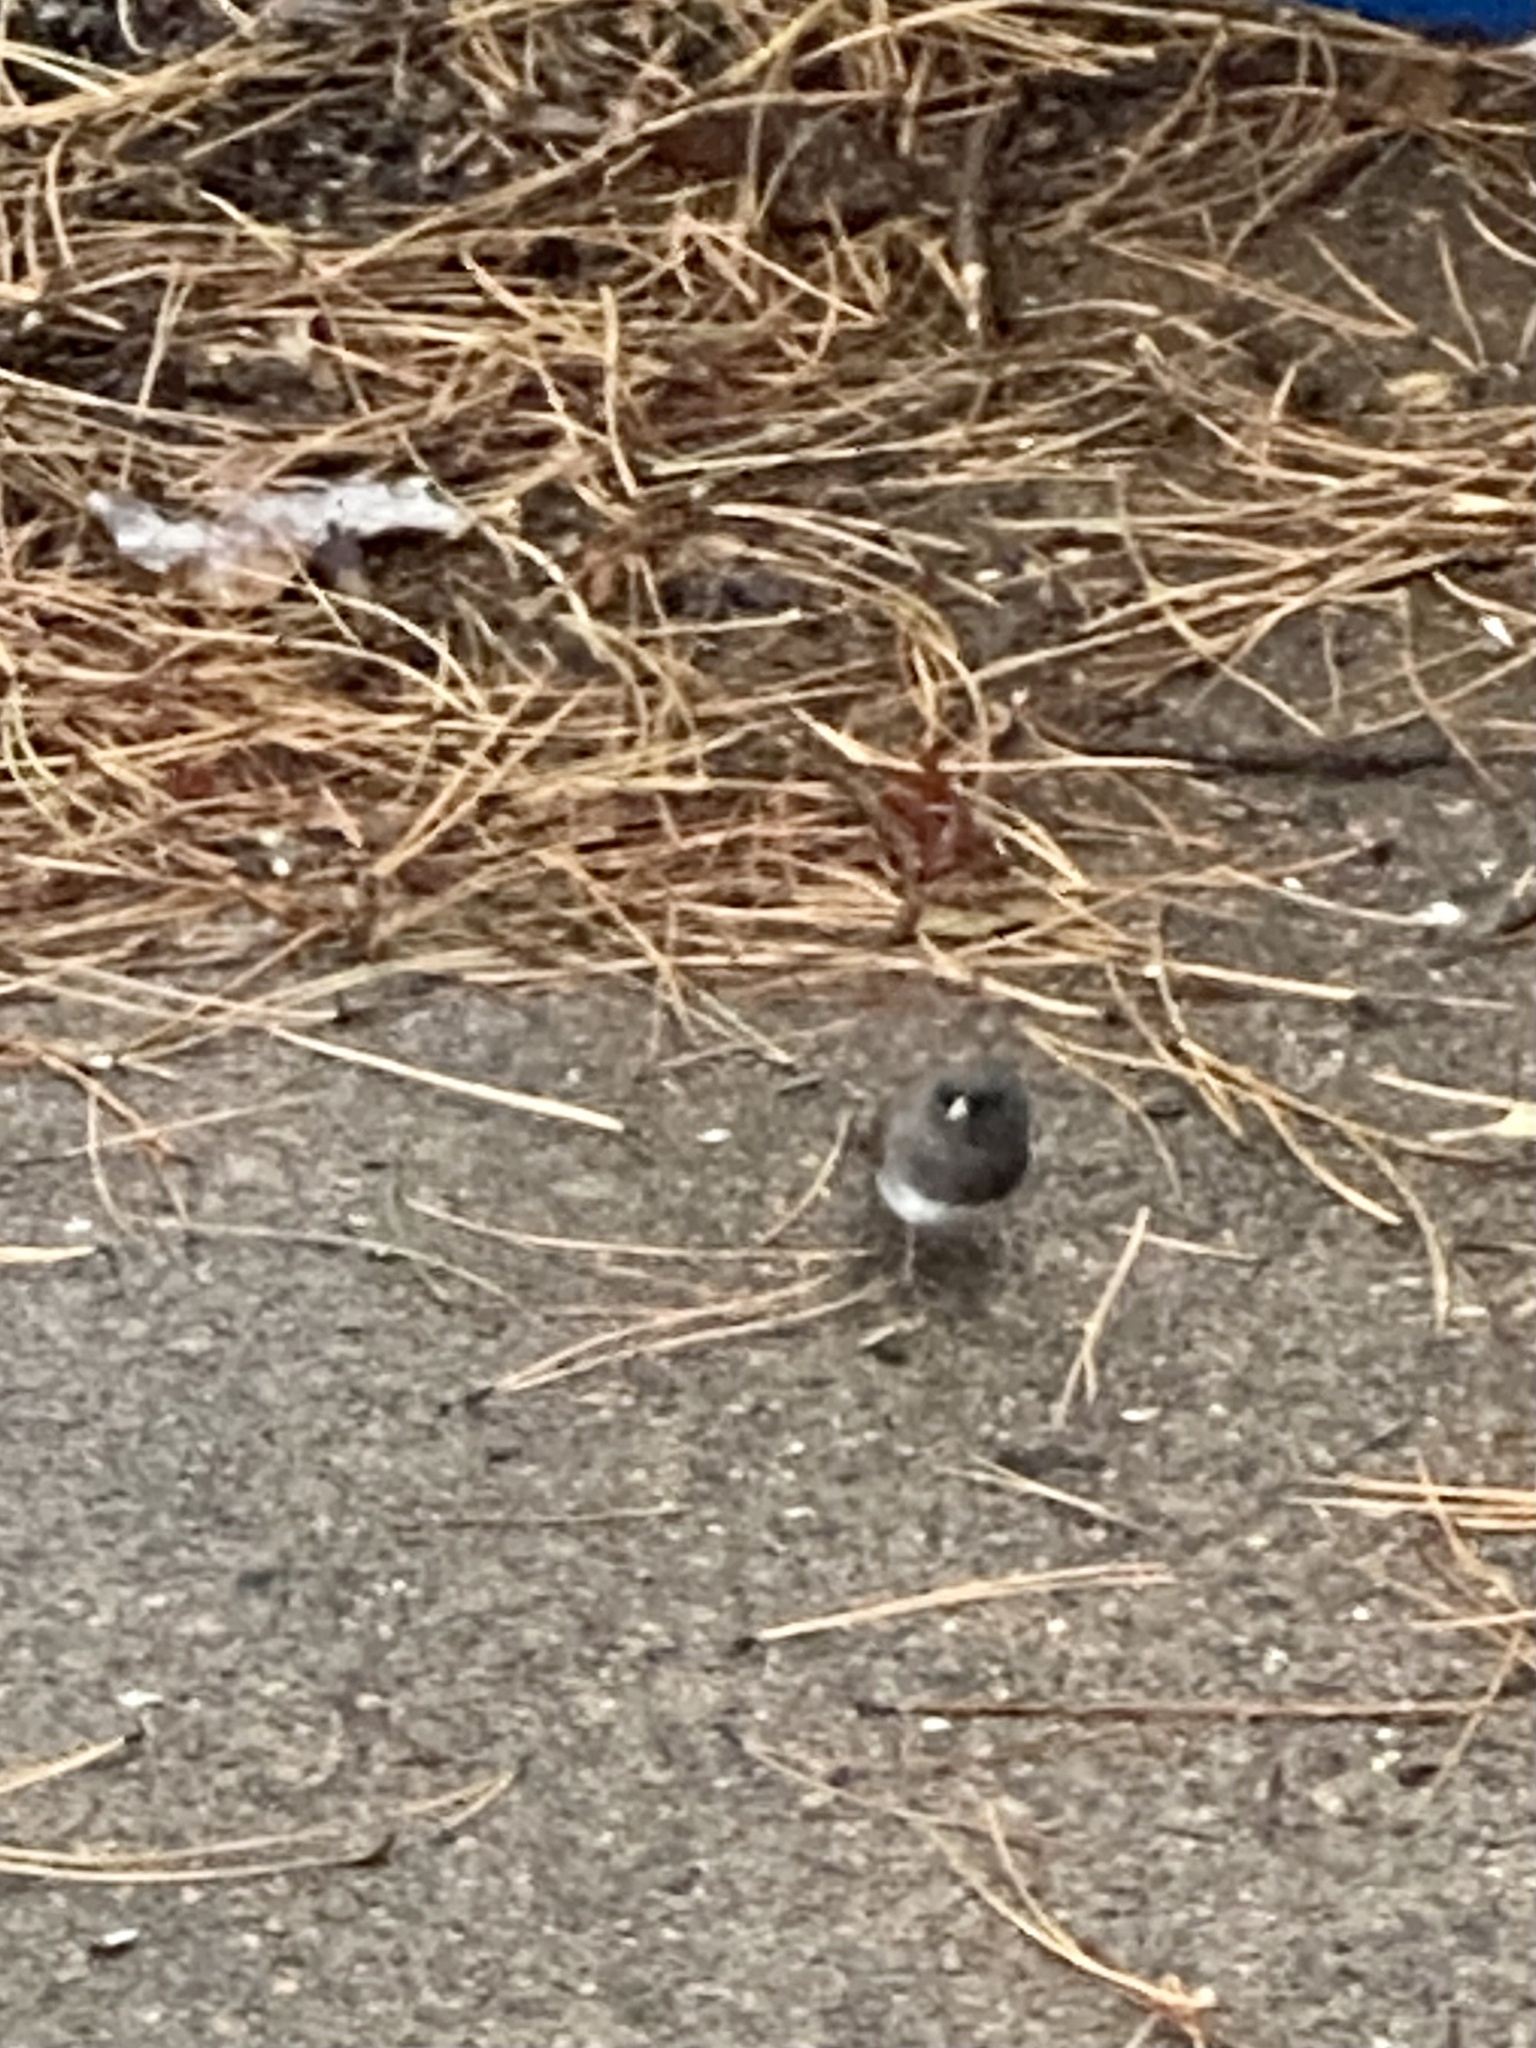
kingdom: Animalia
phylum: Chordata
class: Aves
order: Passeriformes
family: Passerellidae
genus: Junco
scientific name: Junco hyemalis
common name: Dark-eyed junco
